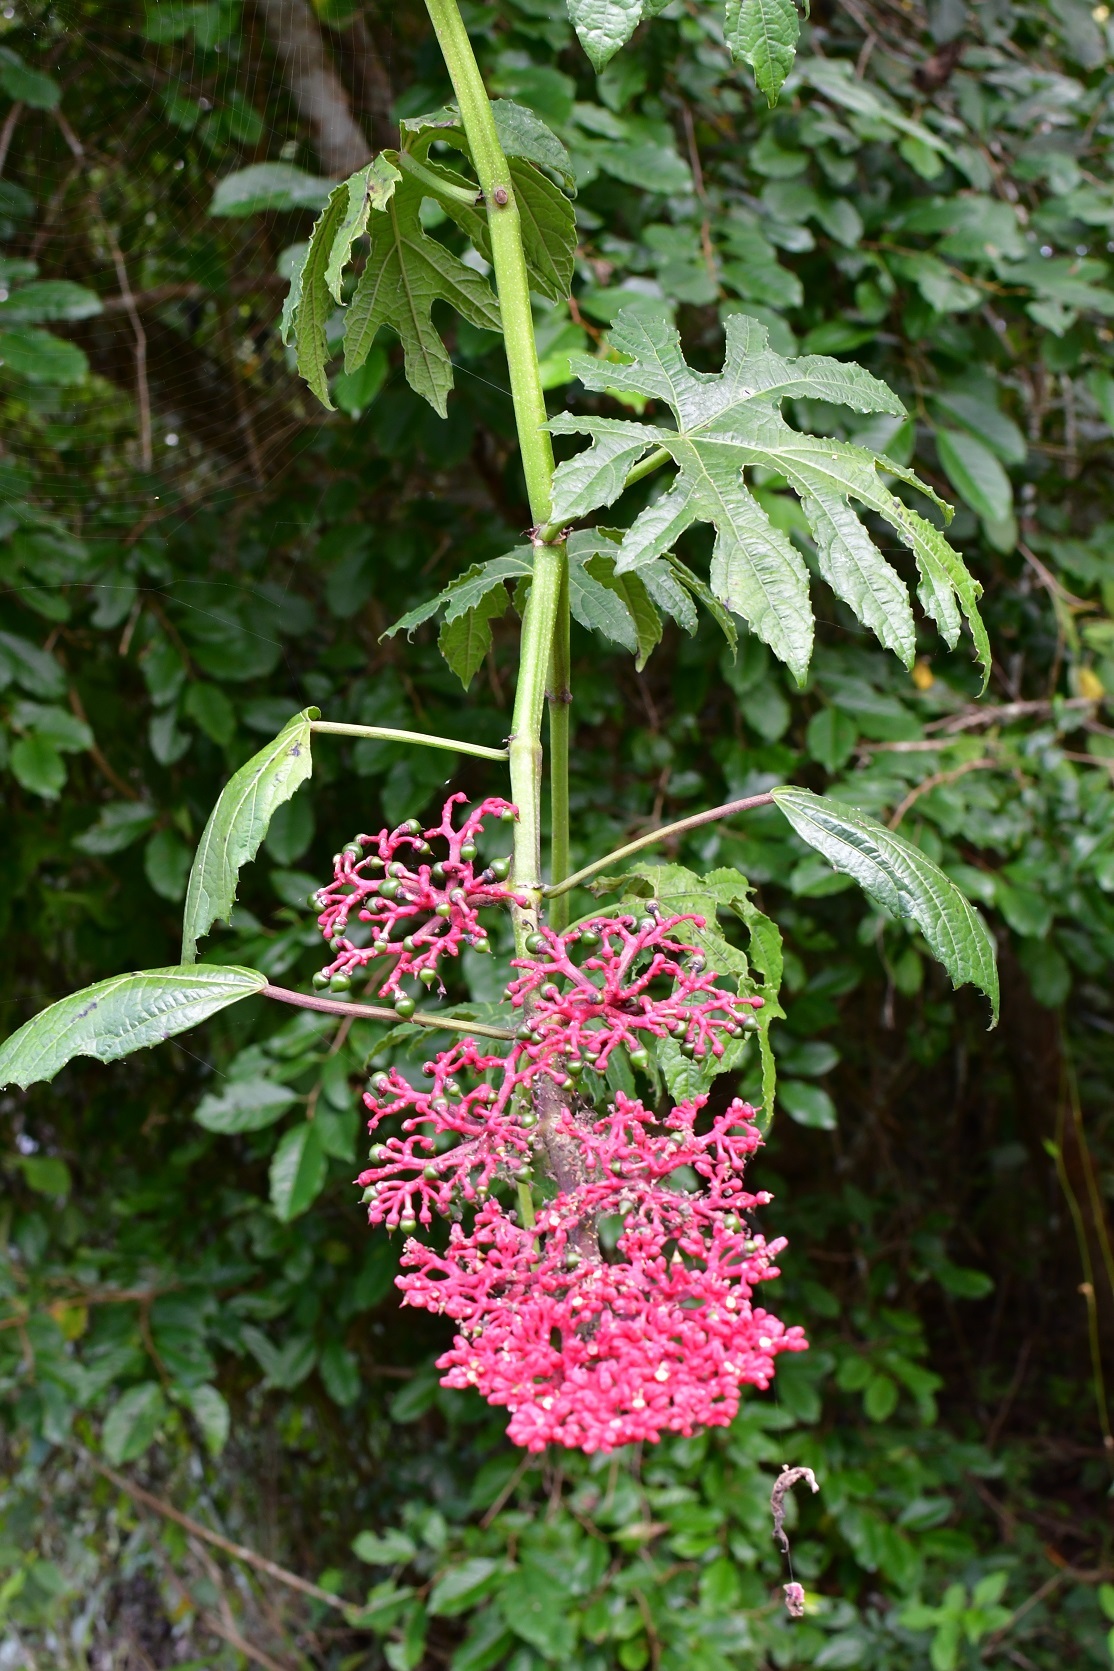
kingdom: Plantae
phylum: Tracheophyta
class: Magnoliopsida
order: Vitales
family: Vitaceae
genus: Cissus
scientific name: Cissus biformifolia
